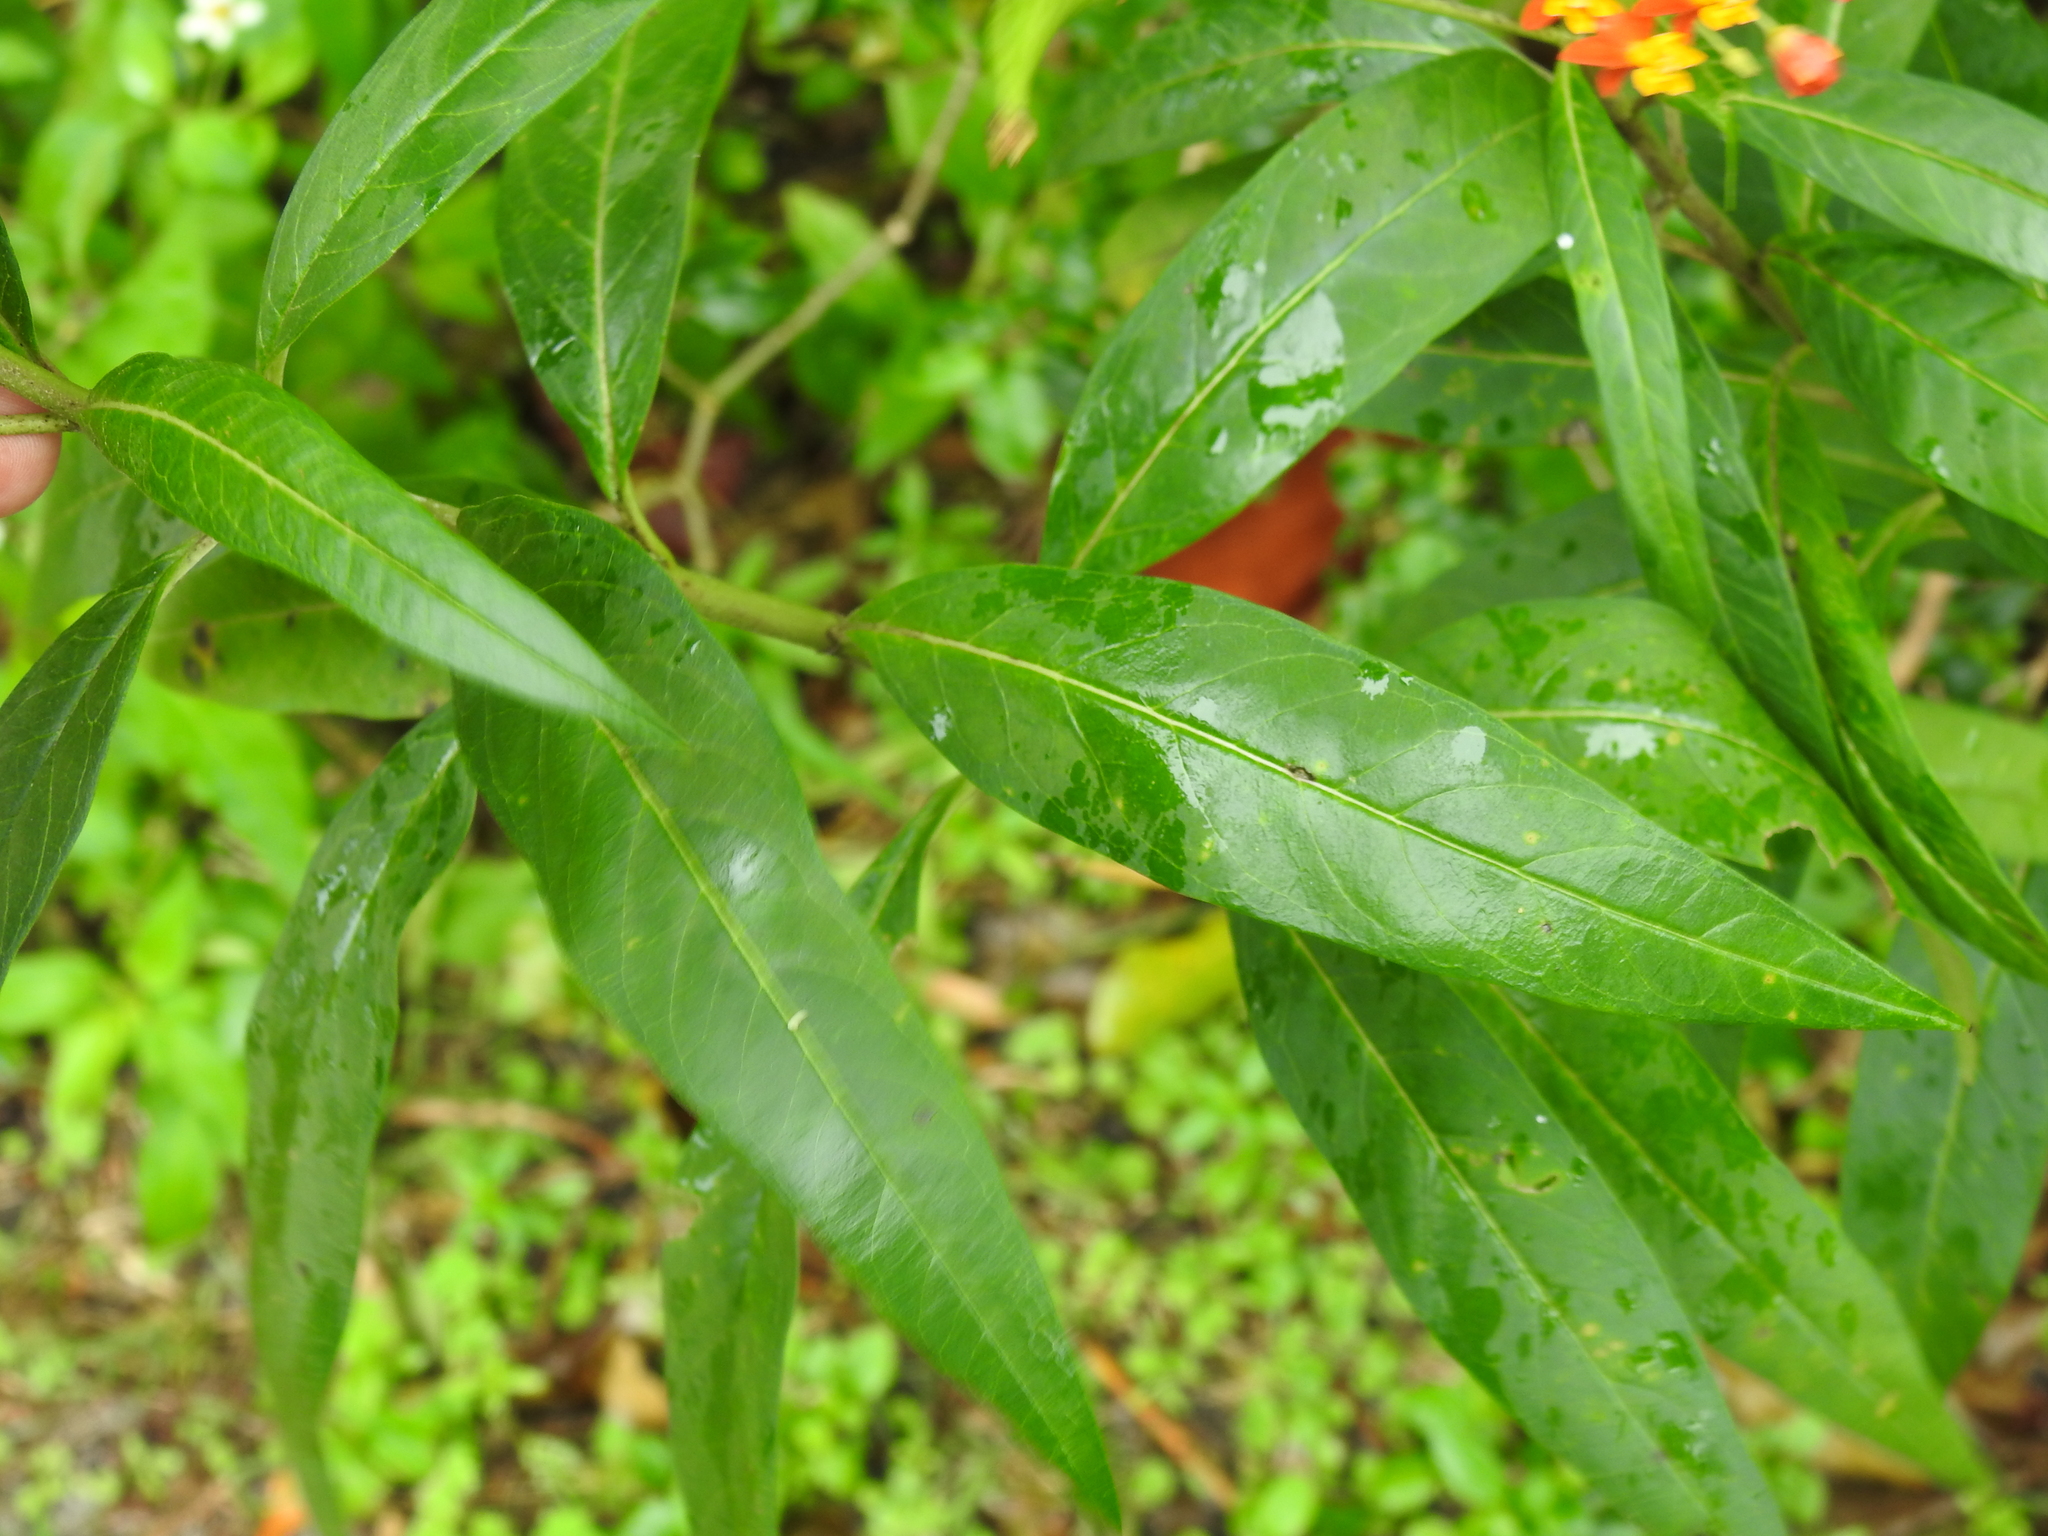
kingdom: Plantae
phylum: Tracheophyta
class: Magnoliopsida
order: Gentianales
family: Apocynaceae
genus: Asclepias
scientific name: Asclepias curassavica
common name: Bloodflower
